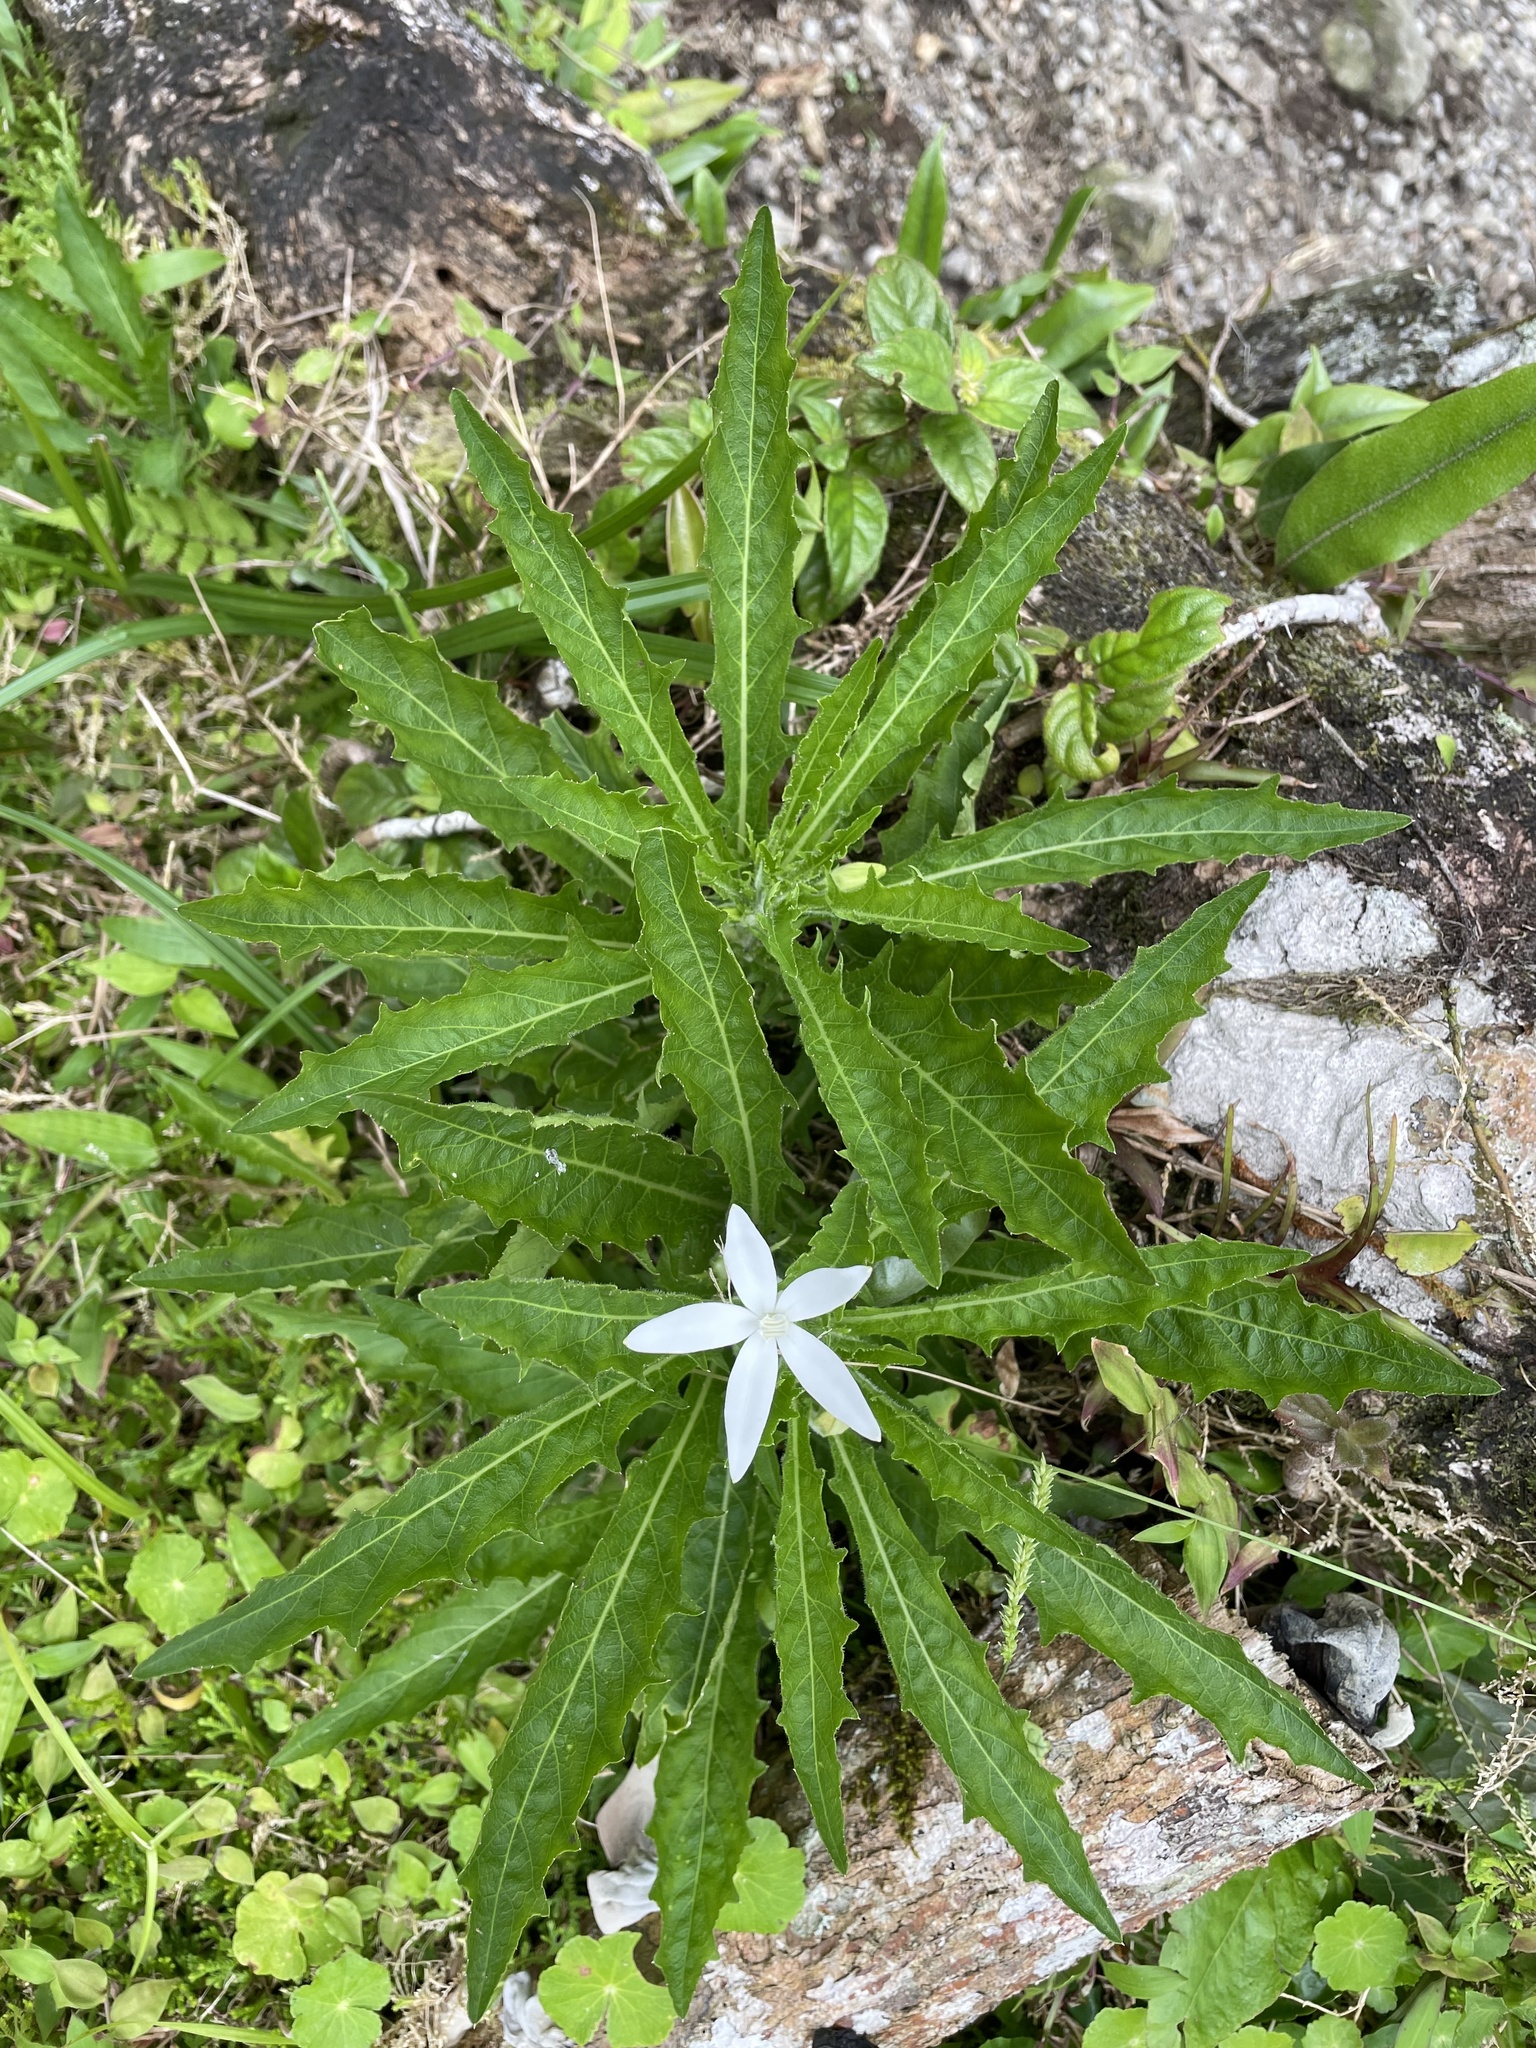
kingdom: Plantae
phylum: Tracheophyta
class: Magnoliopsida
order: Asterales
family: Campanulaceae
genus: Hippobroma
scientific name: Hippobroma longiflora
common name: Madamfate
